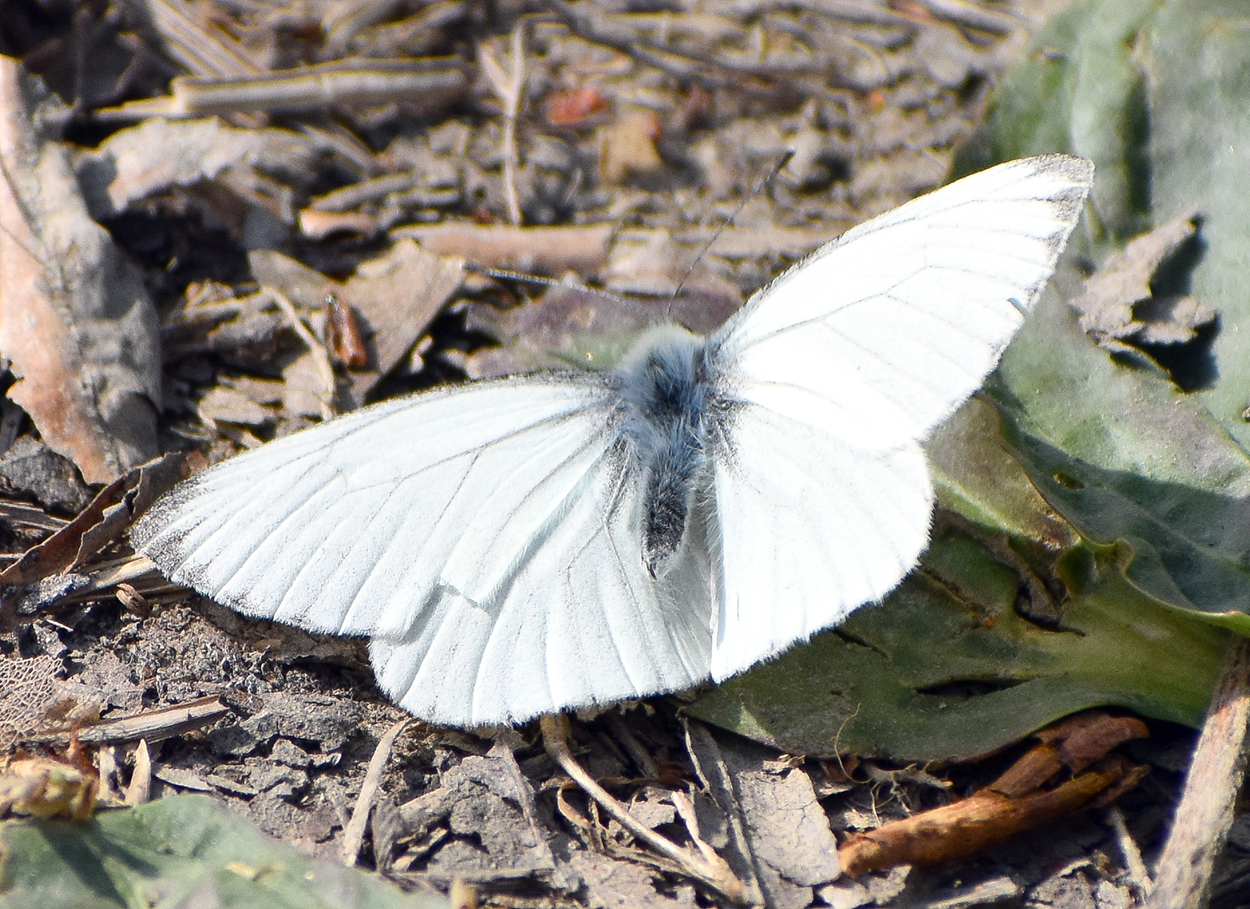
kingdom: Animalia
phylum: Arthropoda
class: Insecta
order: Lepidoptera
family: Pieridae
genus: Pieris
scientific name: Pieris napi
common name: Green-veined white
